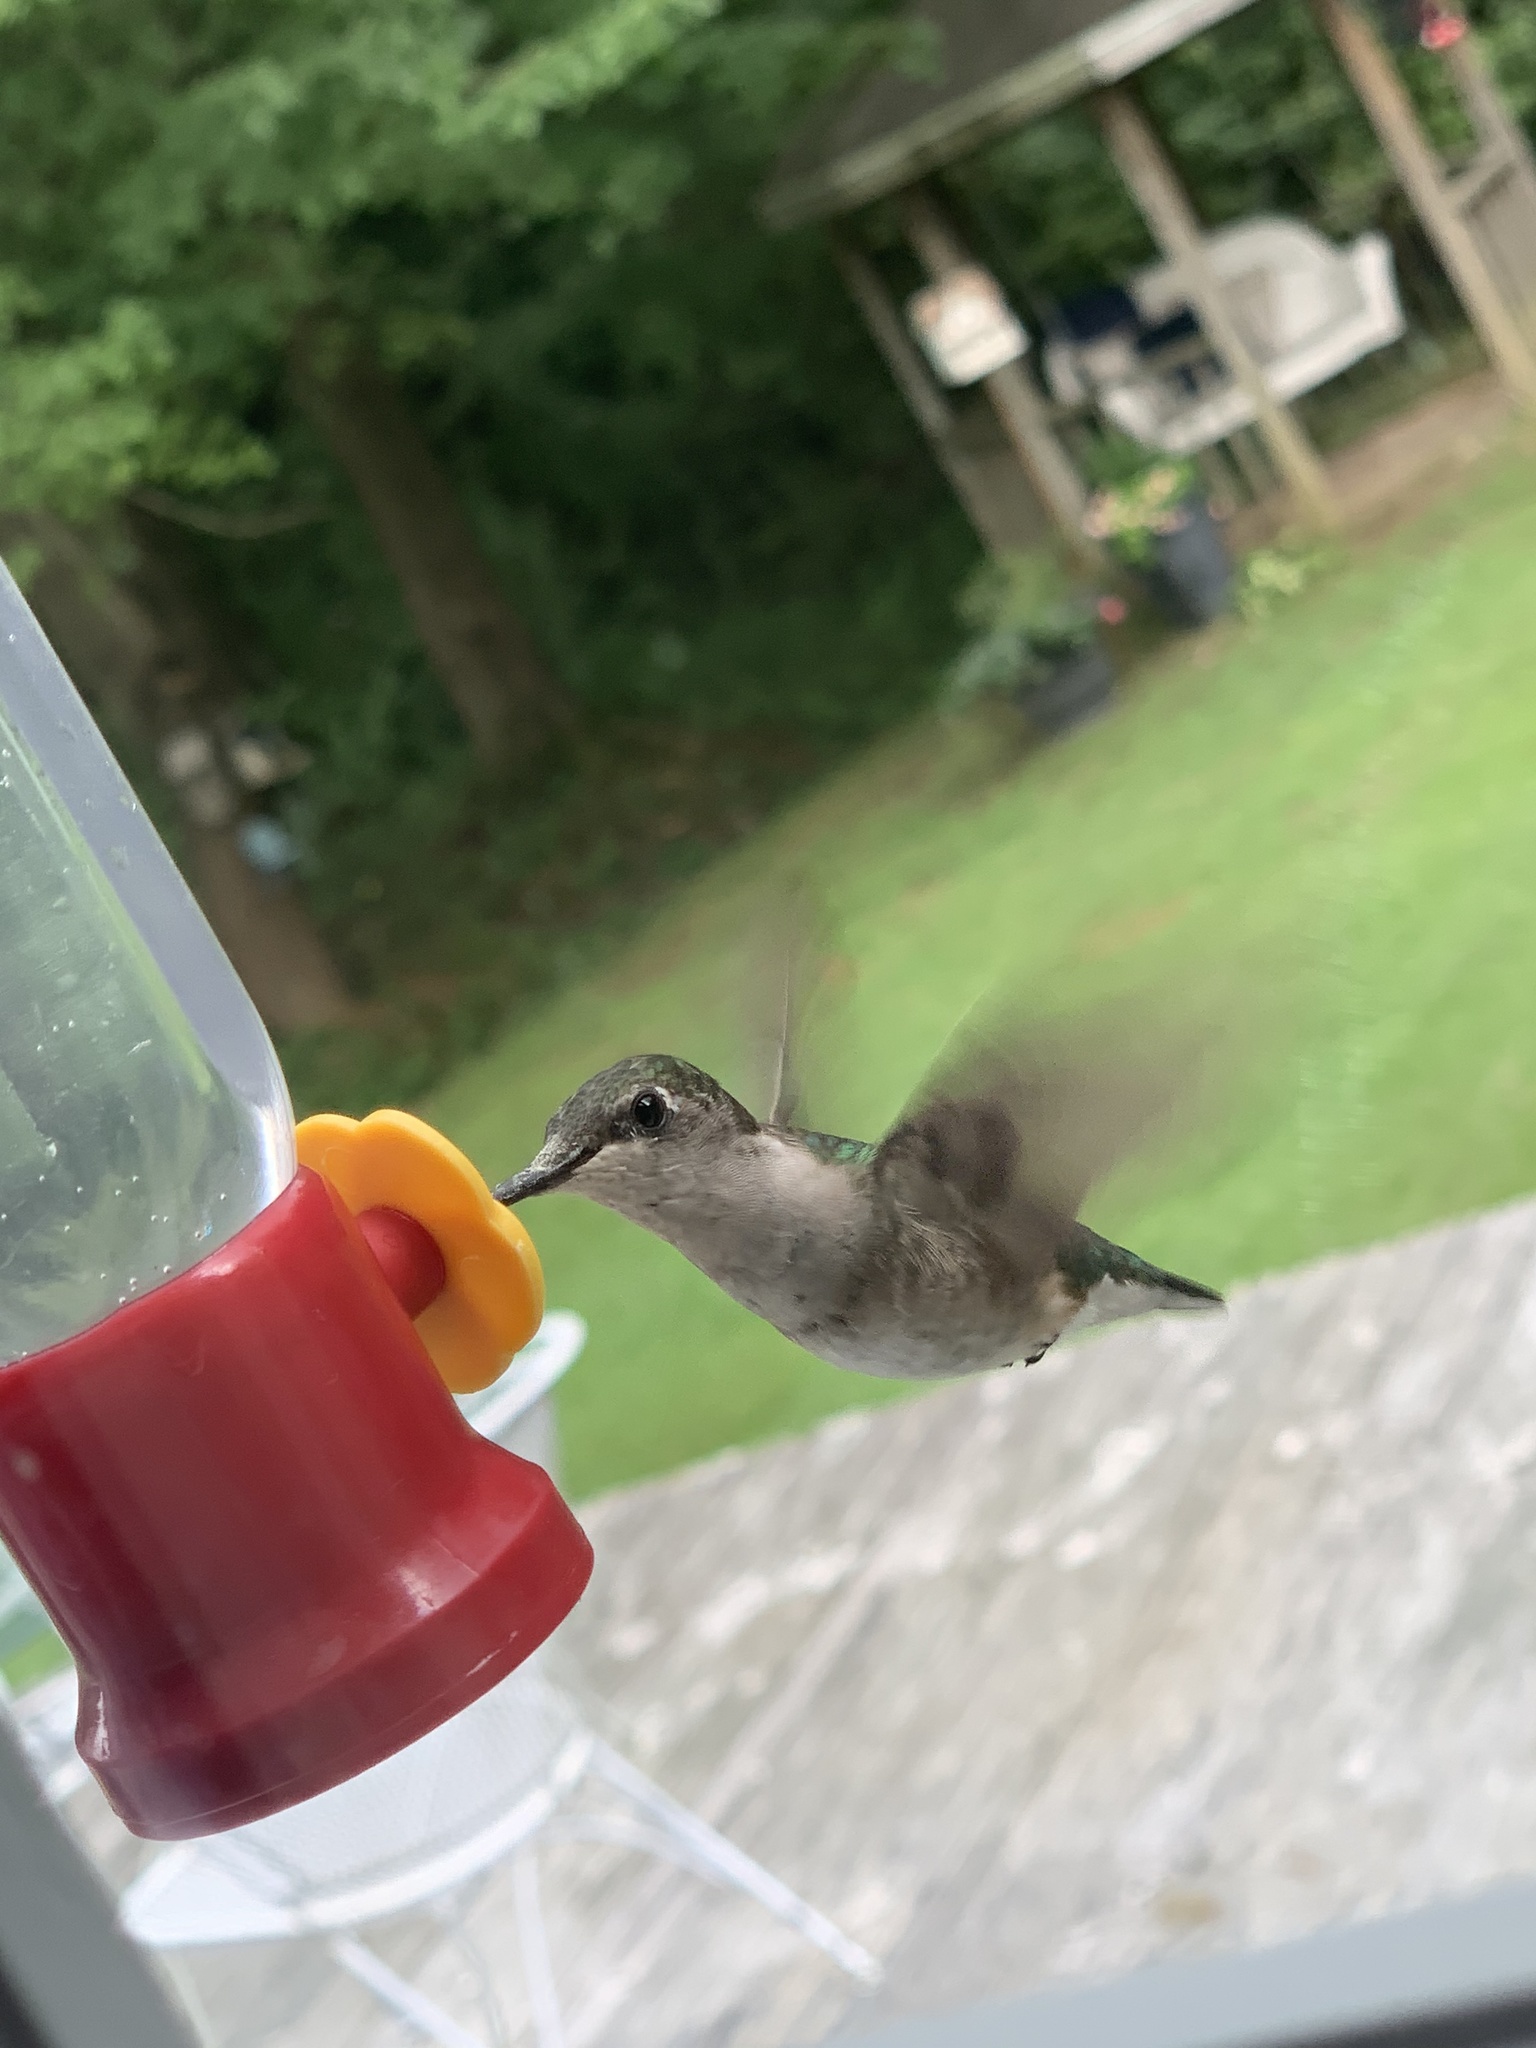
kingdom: Animalia
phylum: Chordata
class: Aves
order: Apodiformes
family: Trochilidae
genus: Archilochus
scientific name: Archilochus colubris
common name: Ruby-throated hummingbird
